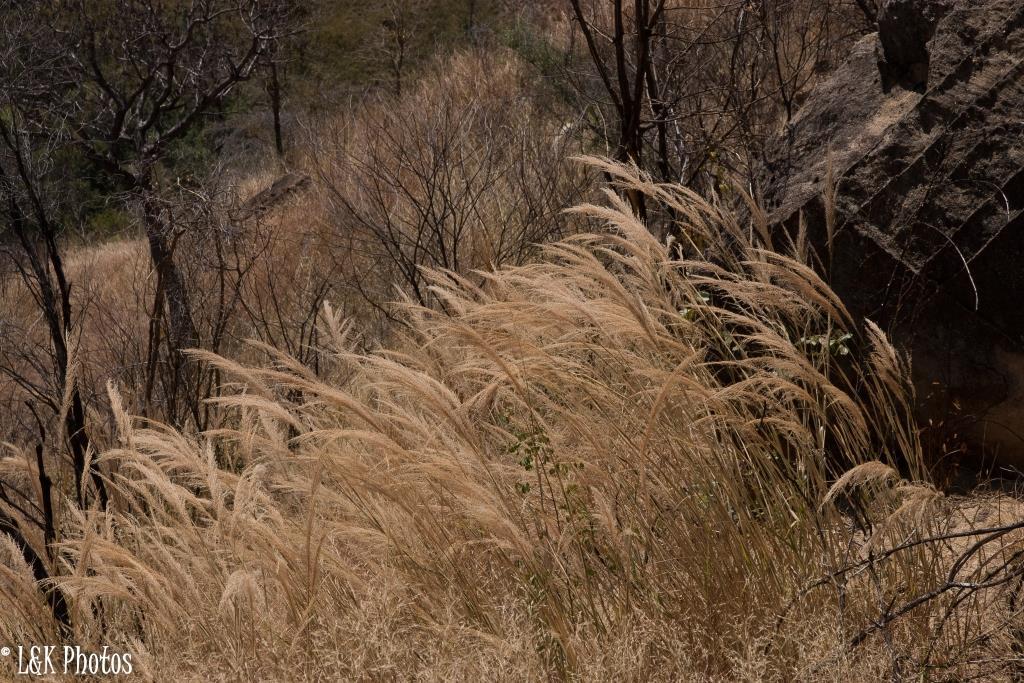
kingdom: Plantae
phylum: Tracheophyta
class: Liliopsida
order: Poales
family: Poaceae
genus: Loudetia
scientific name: Loudetia simplex
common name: Common russet grass
